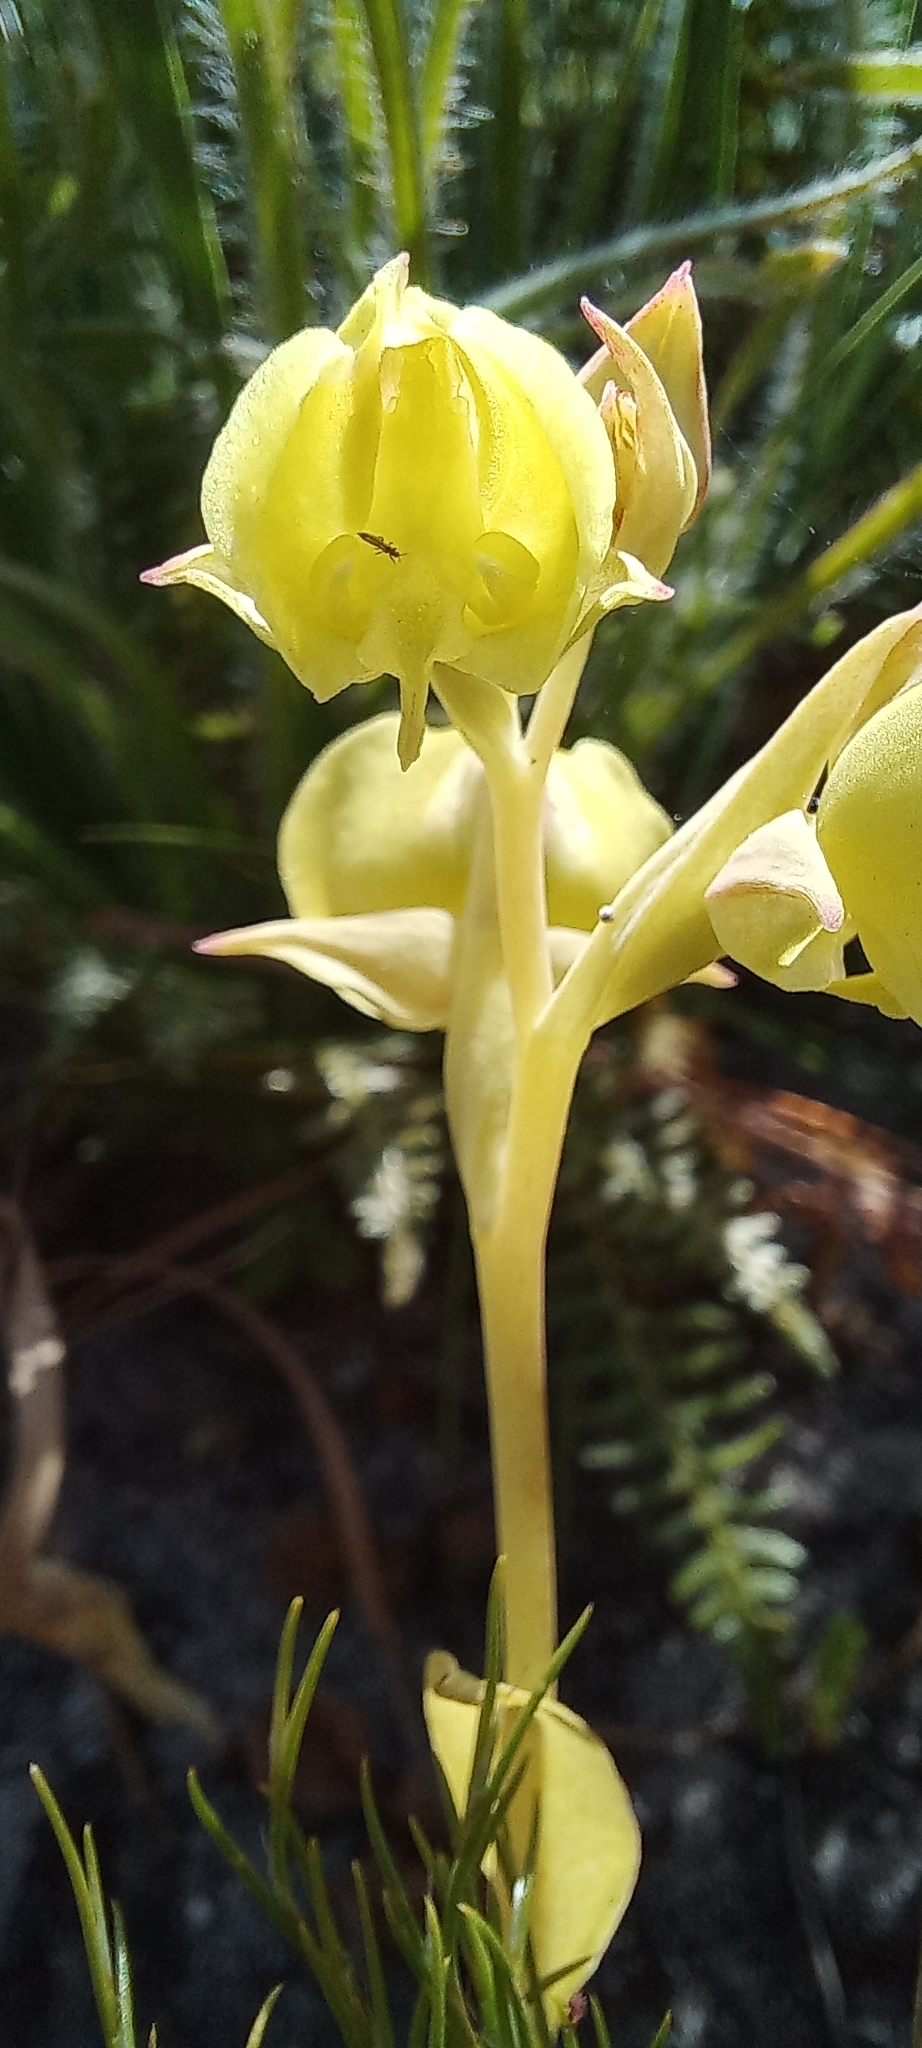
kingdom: Plantae
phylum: Tracheophyta
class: Liliopsida
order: Asparagales
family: Orchidaceae
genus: Pterygodium
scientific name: Pterygodium catholicum
